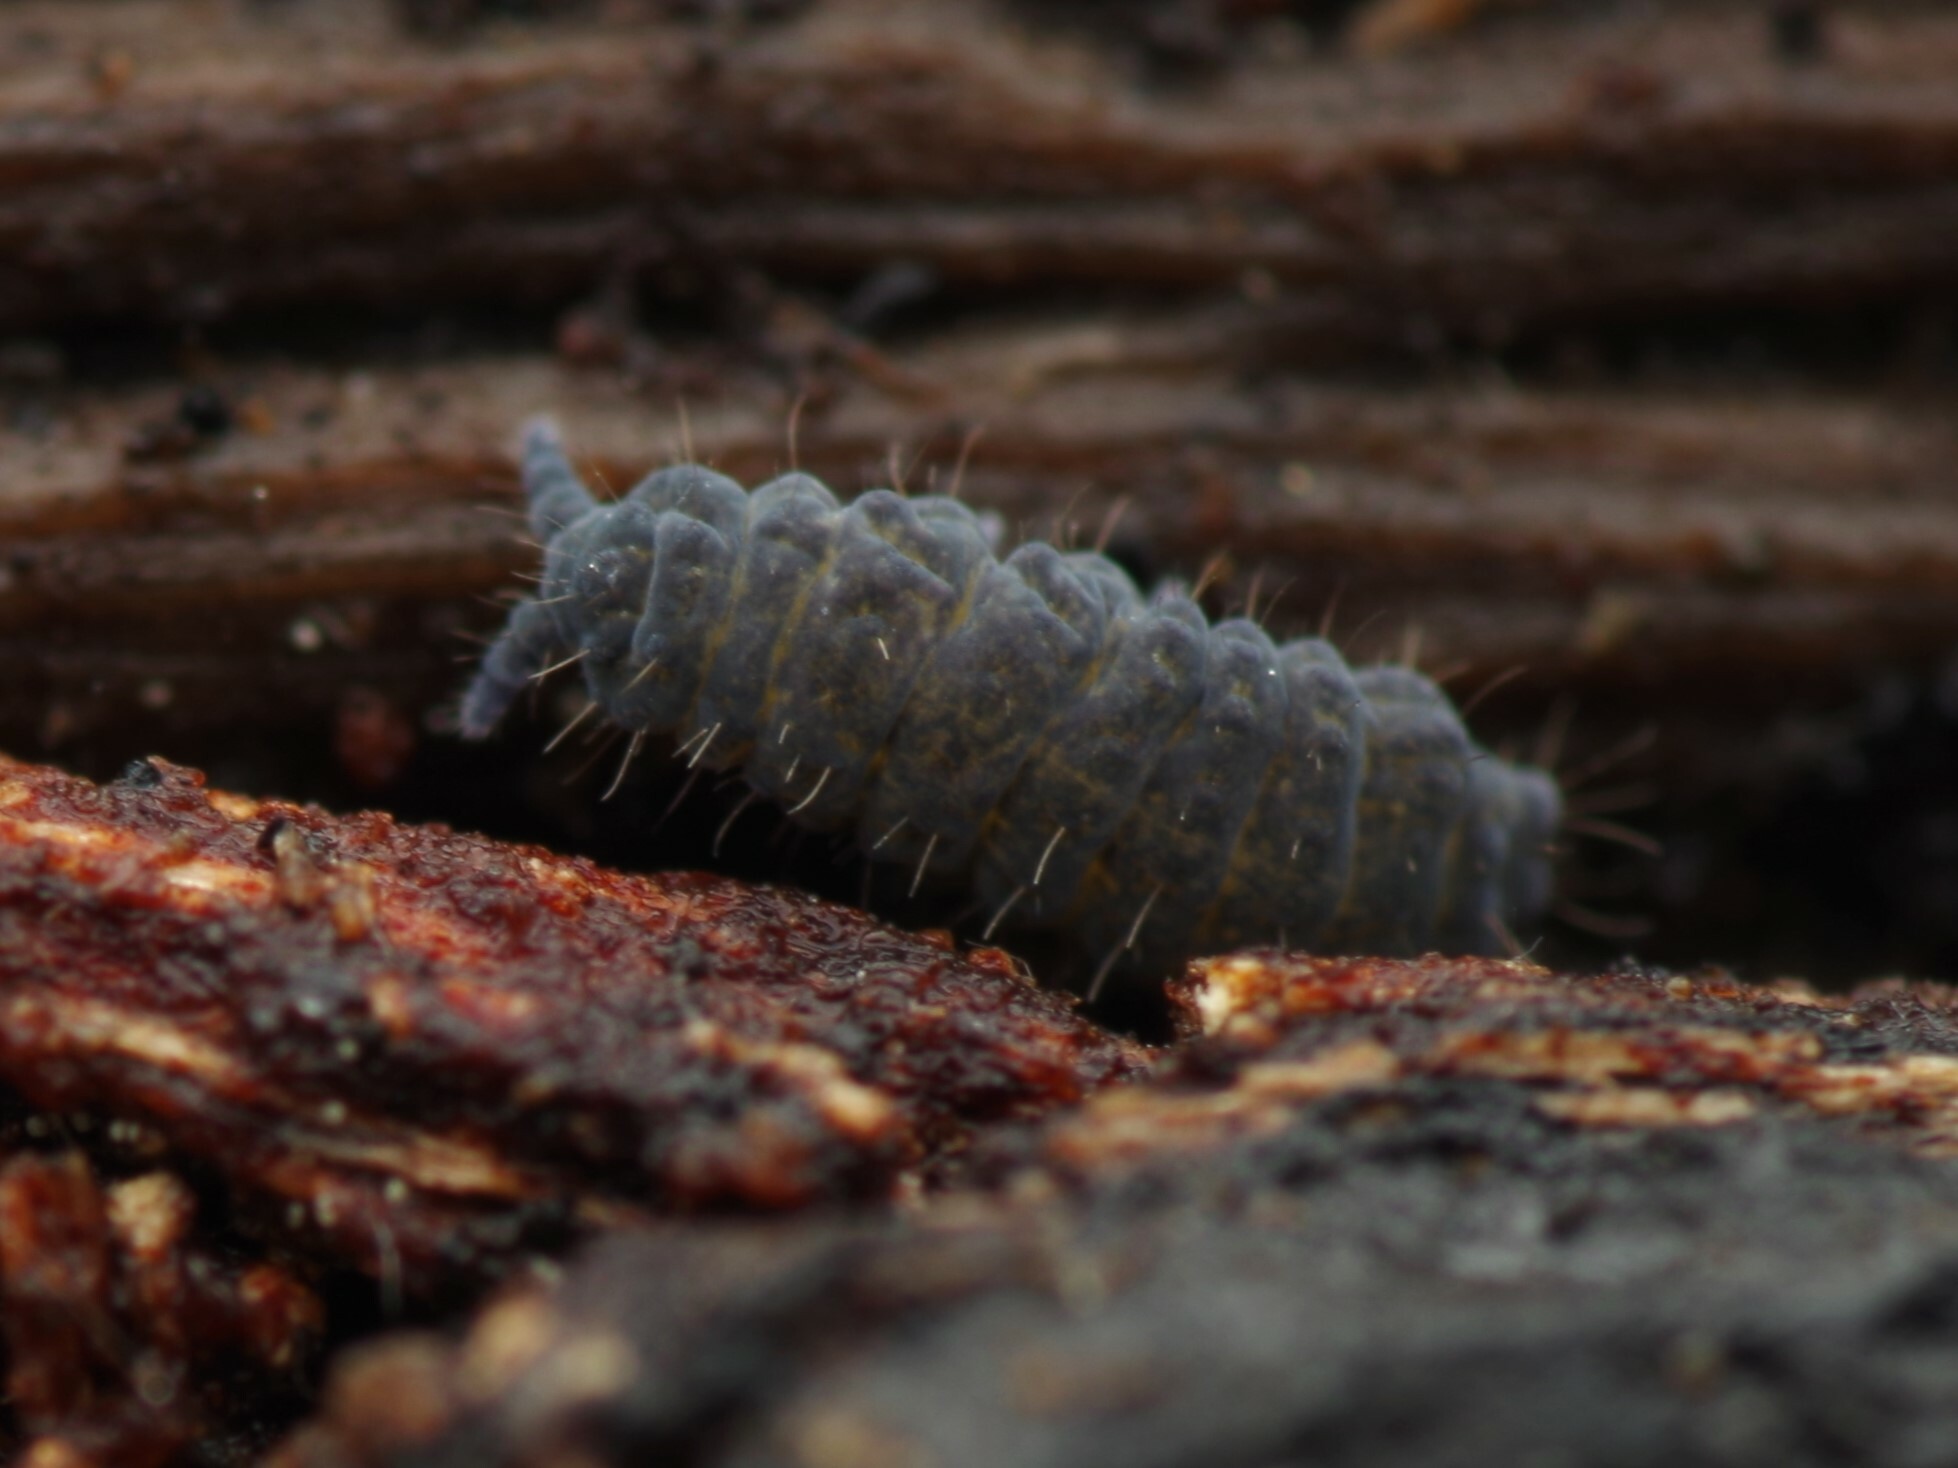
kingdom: Animalia
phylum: Arthropoda
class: Collembola
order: Poduromorpha
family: Neanuridae
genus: Neanura
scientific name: Neanura muscorum
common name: Springtail
